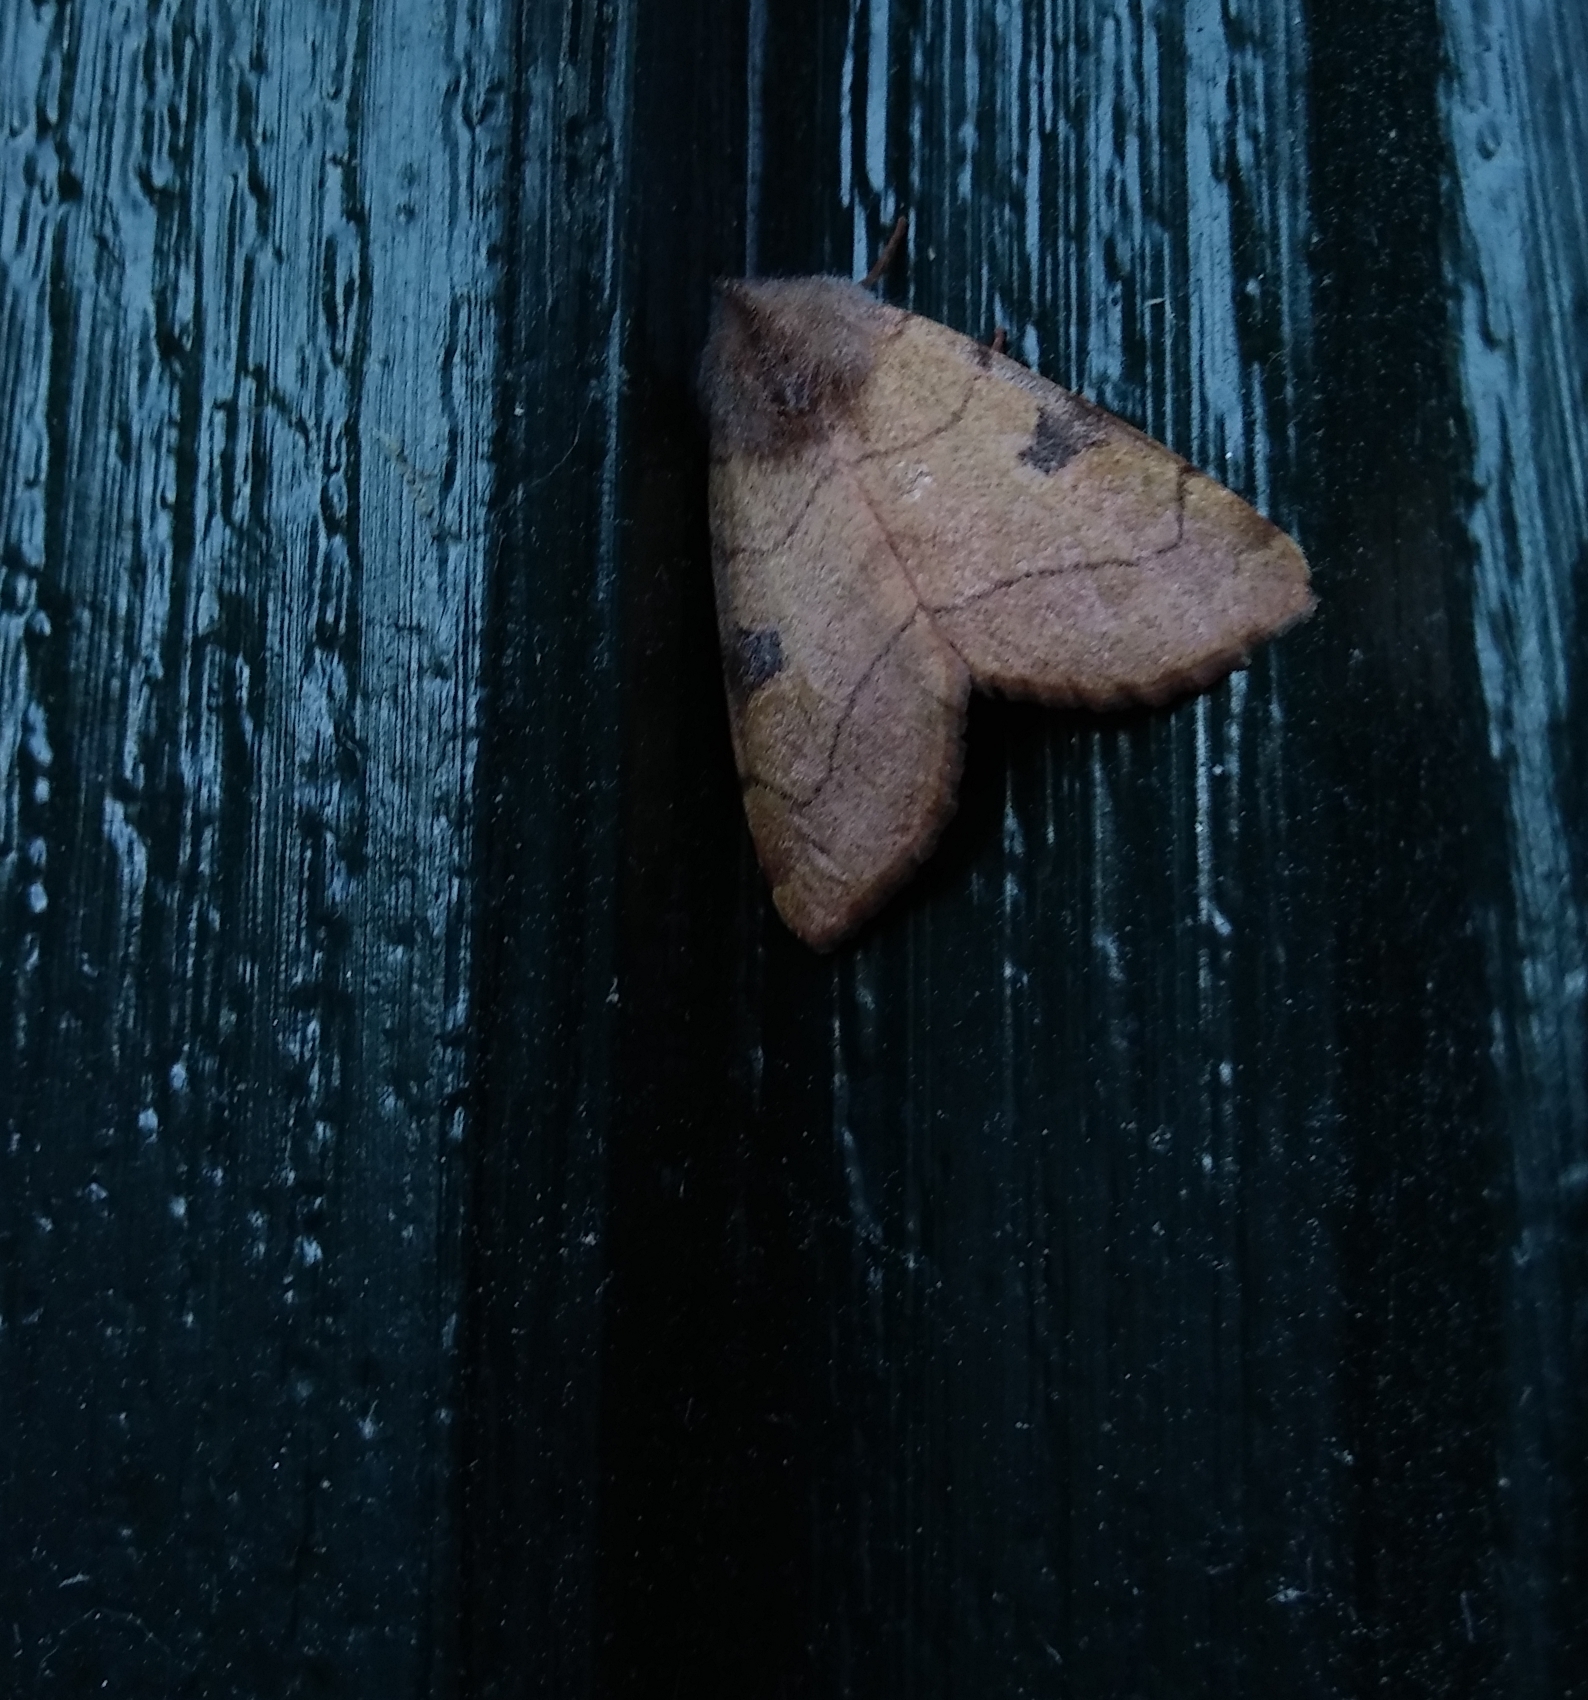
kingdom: Animalia
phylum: Arthropoda
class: Insecta
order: Lepidoptera
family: Noctuidae
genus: Choephora
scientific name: Choephora fungorum
